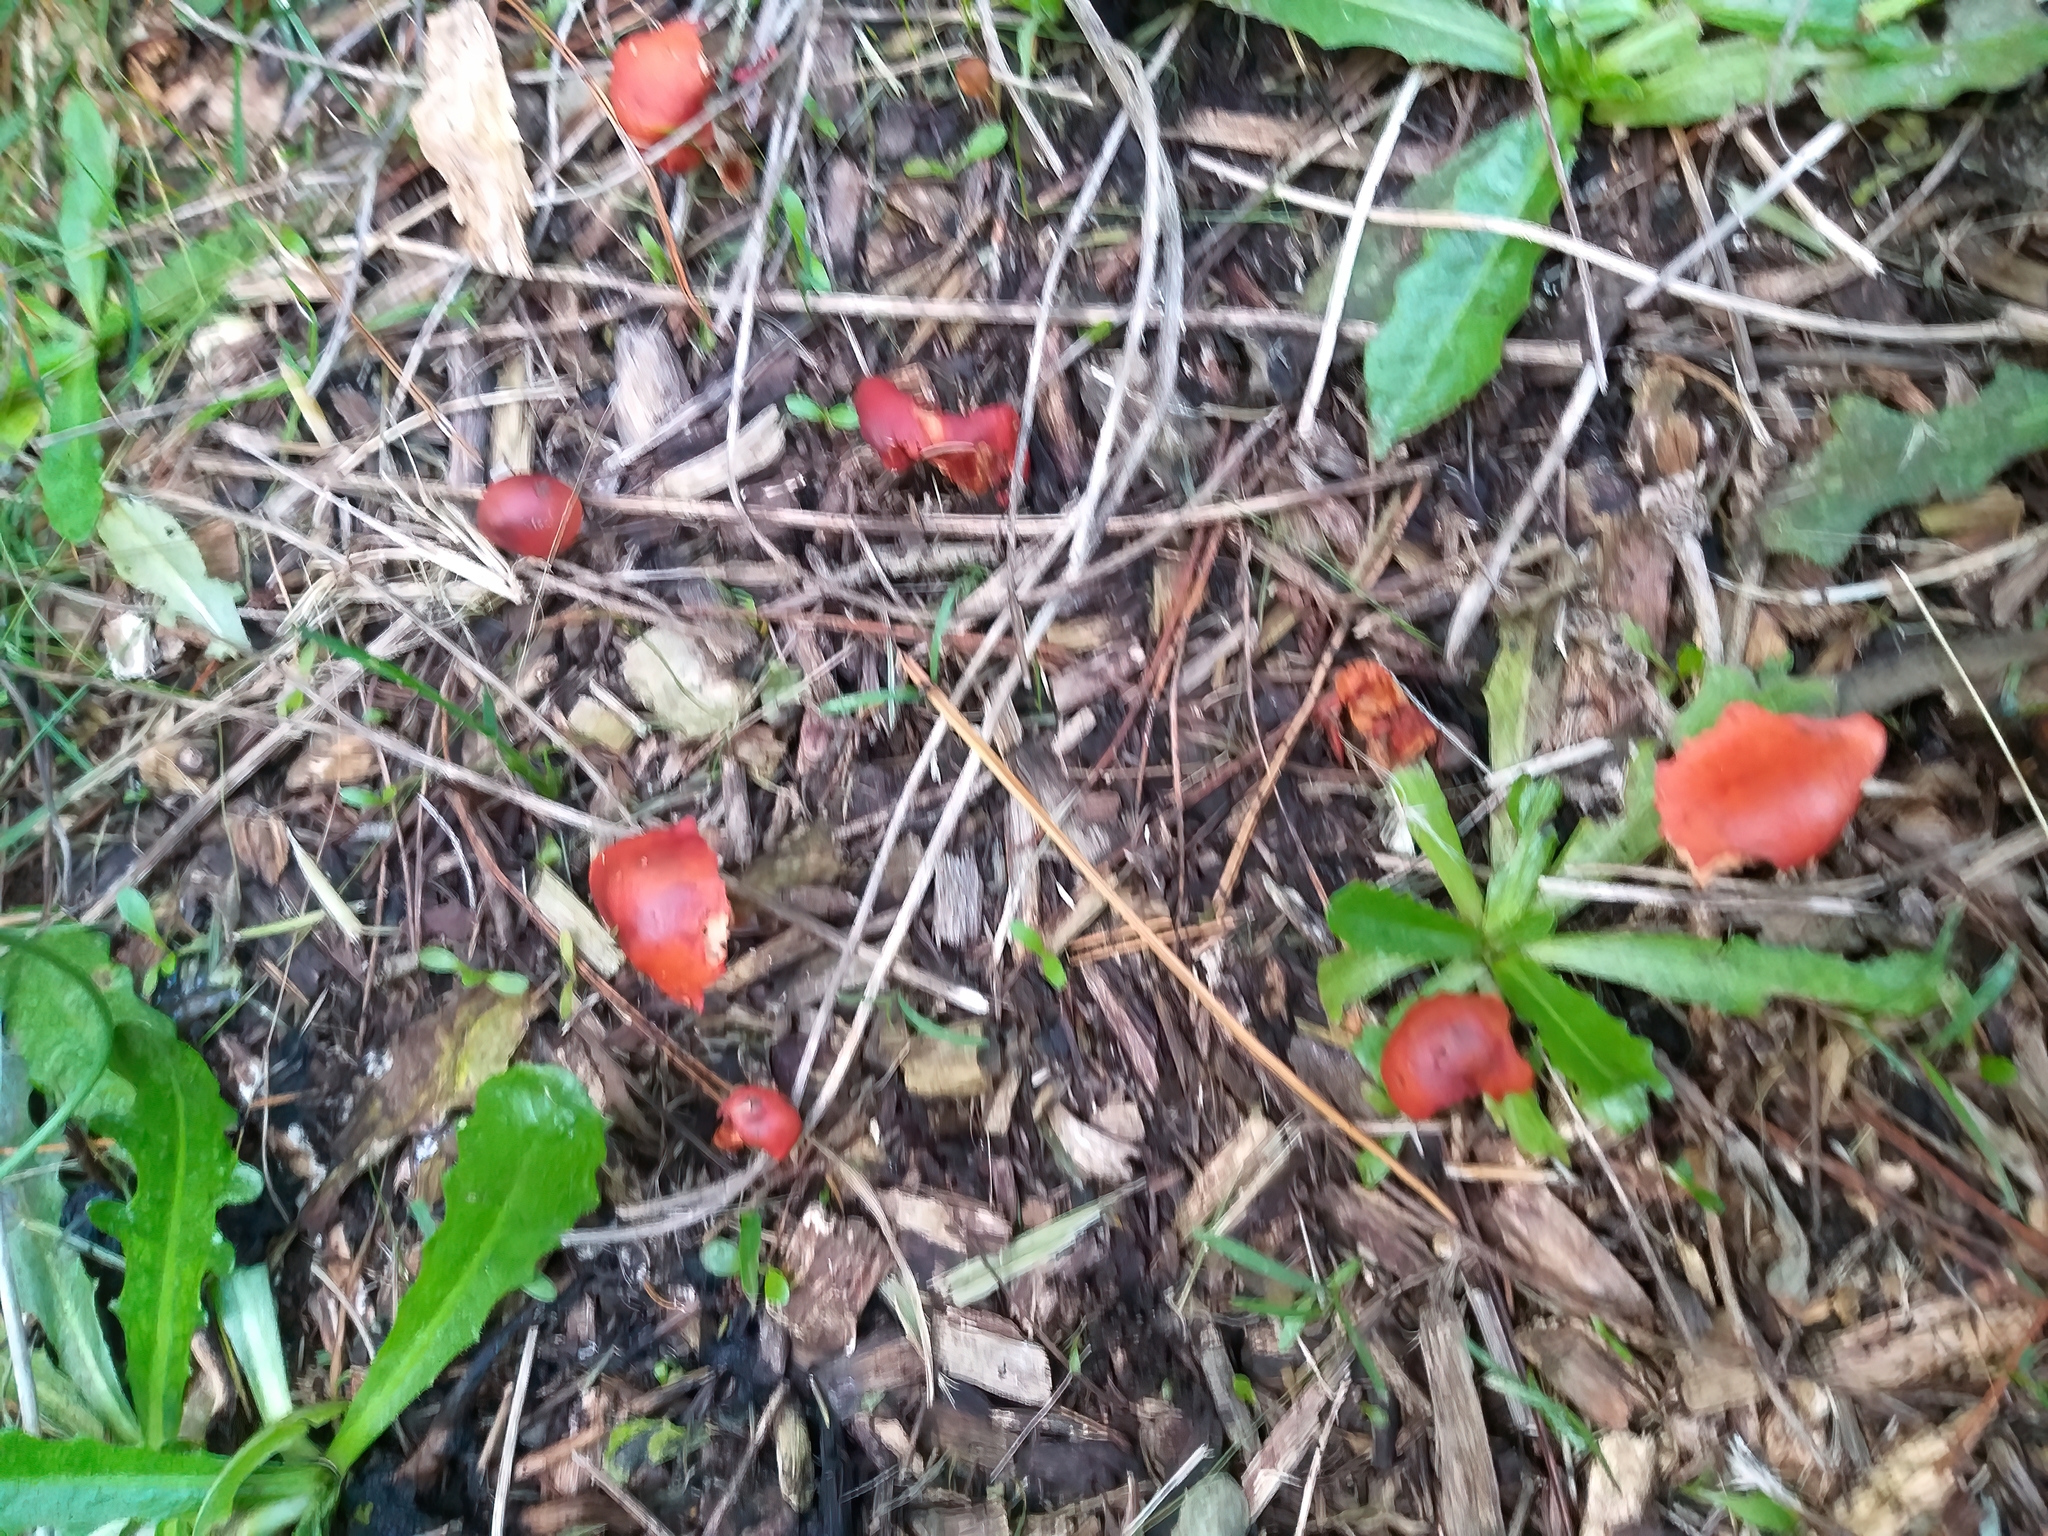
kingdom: Fungi
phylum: Basidiomycota
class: Agaricomycetes
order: Agaricales
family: Strophariaceae
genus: Leratiomyces
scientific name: Leratiomyces ceres
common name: Redlead roundhead
